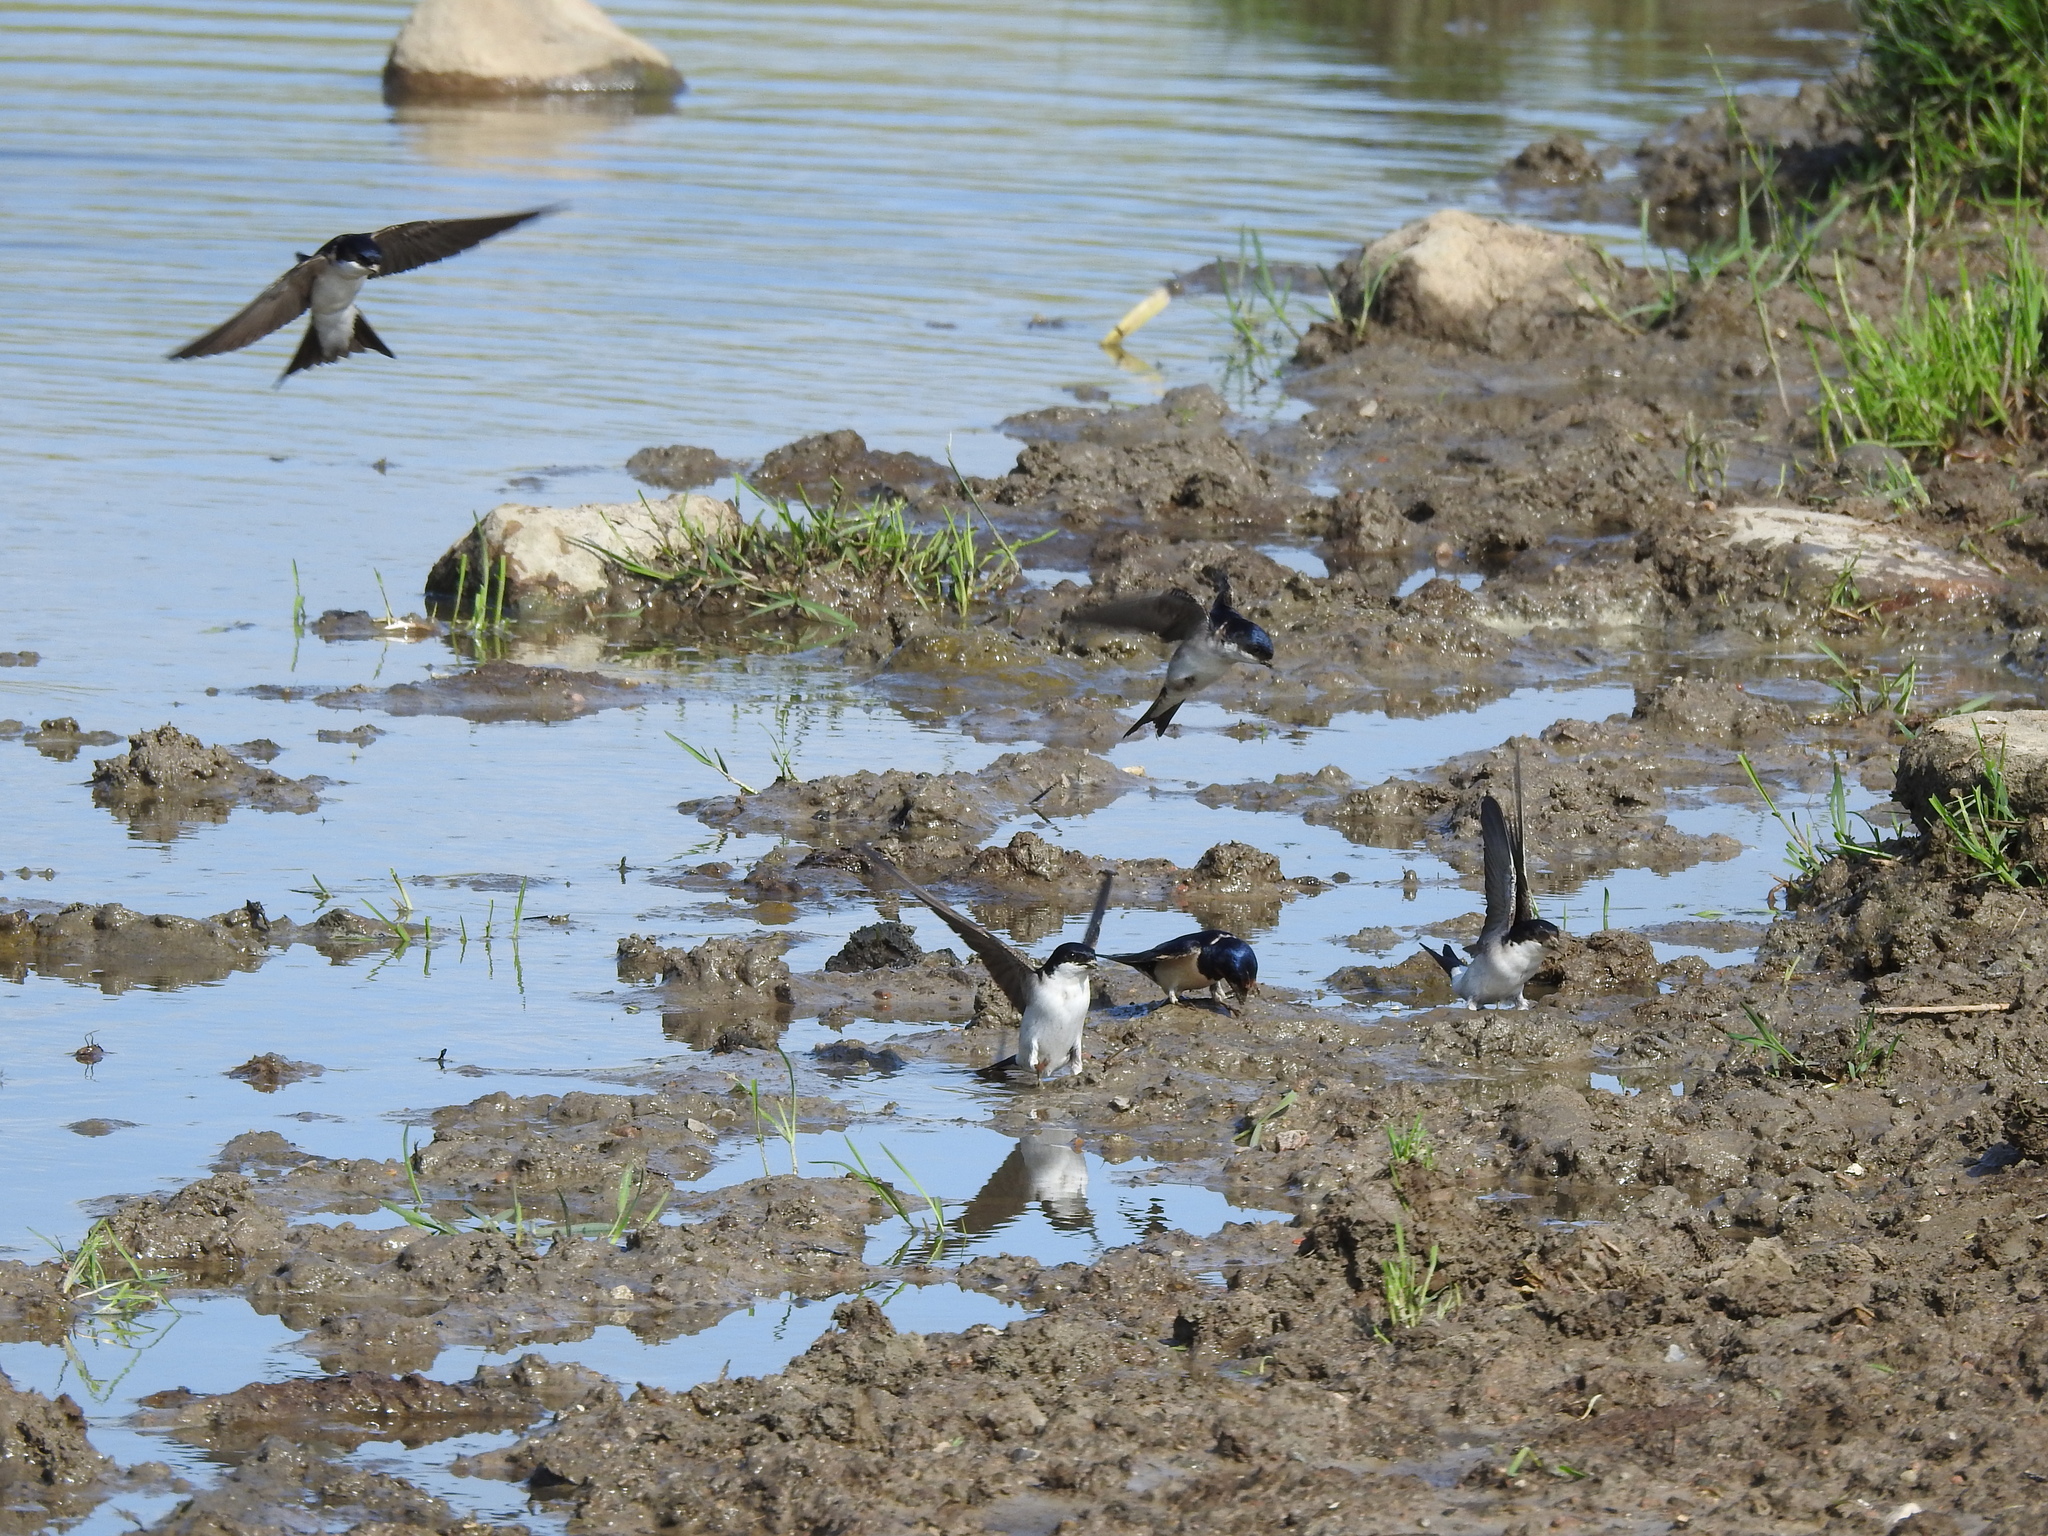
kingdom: Animalia
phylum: Chordata
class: Aves
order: Passeriformes
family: Hirundinidae
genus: Delichon
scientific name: Delichon urbicum
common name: Common house martin
